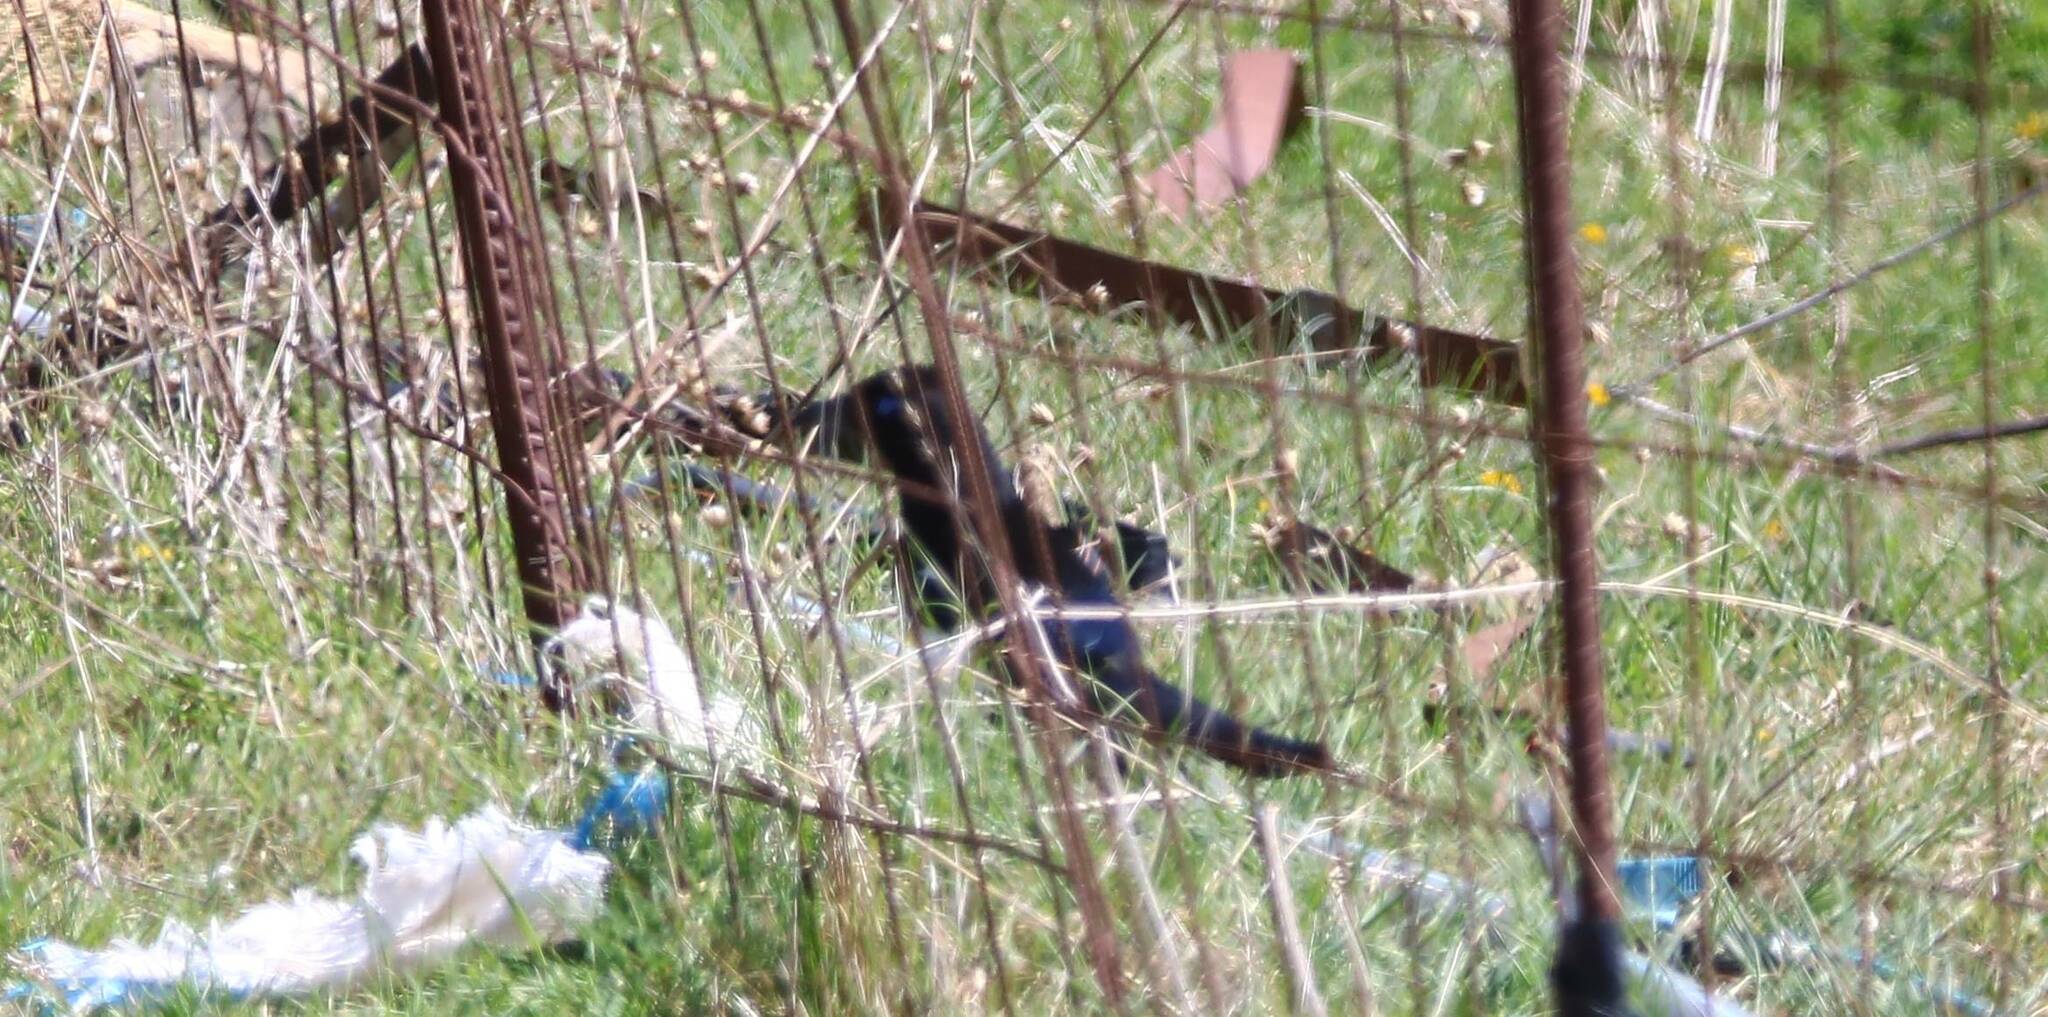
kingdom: Animalia
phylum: Chordata
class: Aves
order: Passeriformes
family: Corvidae
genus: Pica
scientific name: Pica mauritanica
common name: Maghreb magpie
